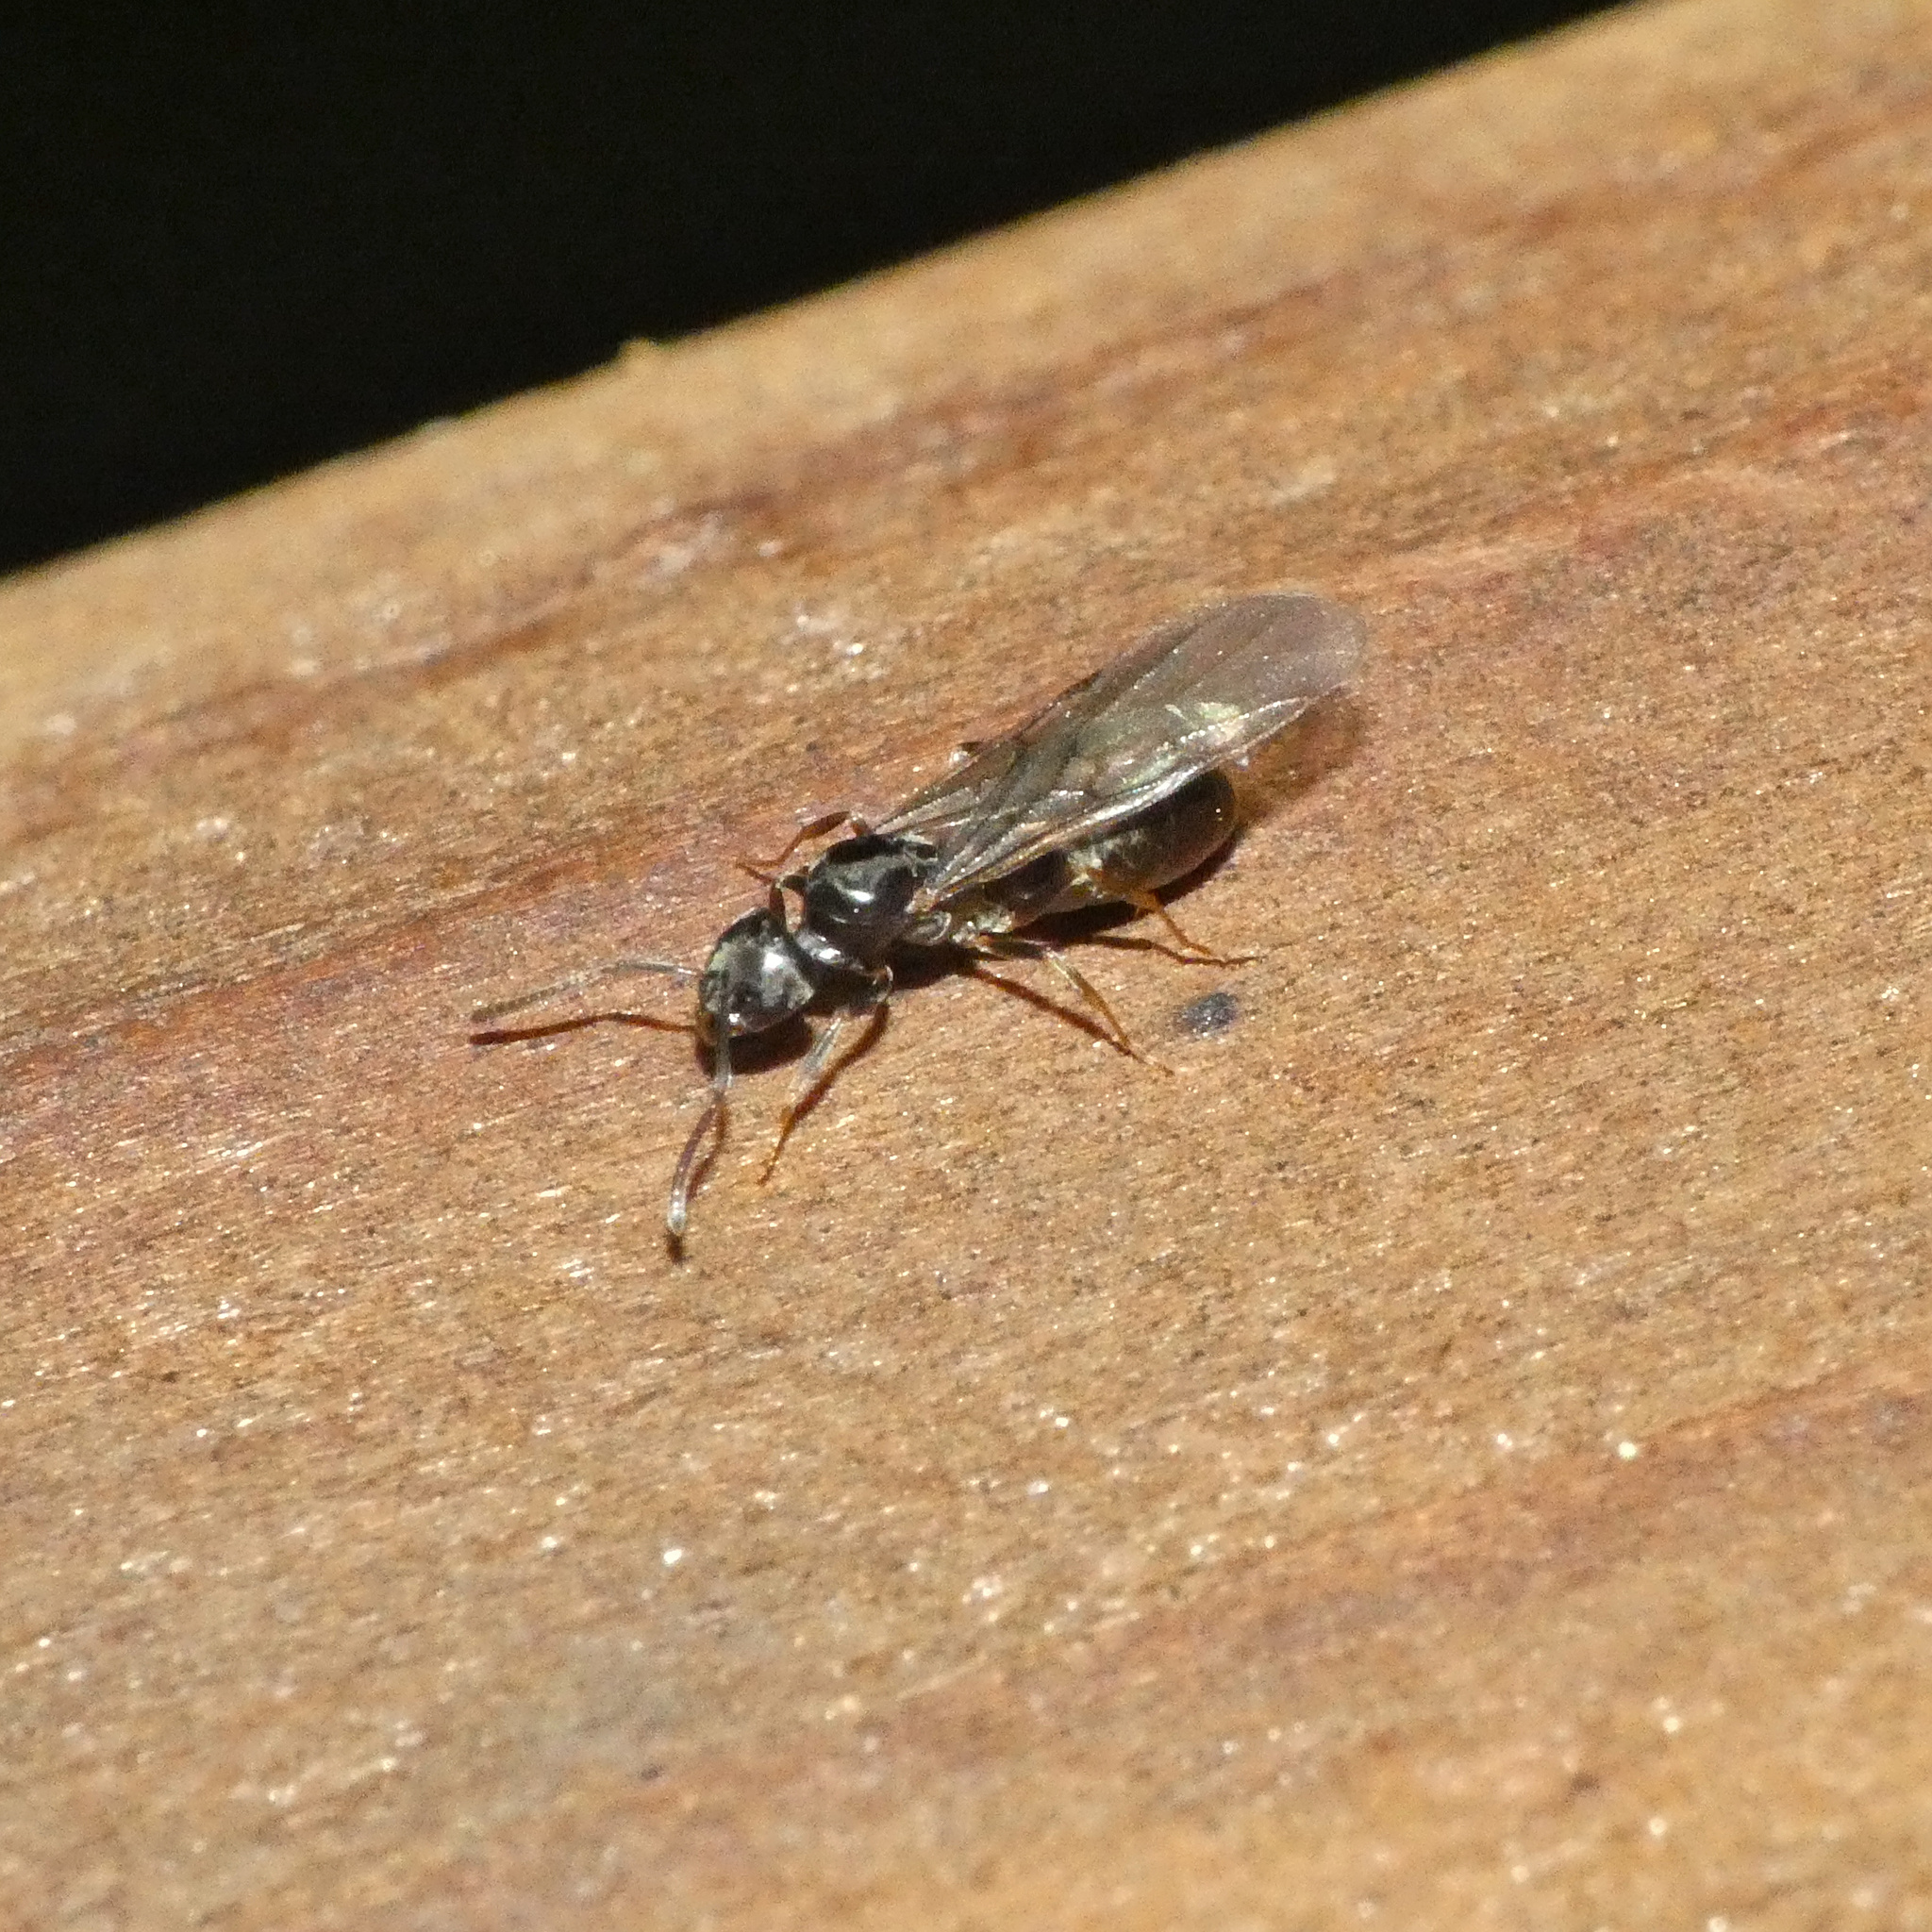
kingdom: Animalia
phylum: Arthropoda
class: Insecta
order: Hymenoptera
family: Formicidae
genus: Tapinoma
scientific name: Tapinoma sessile
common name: Odorous house ant
